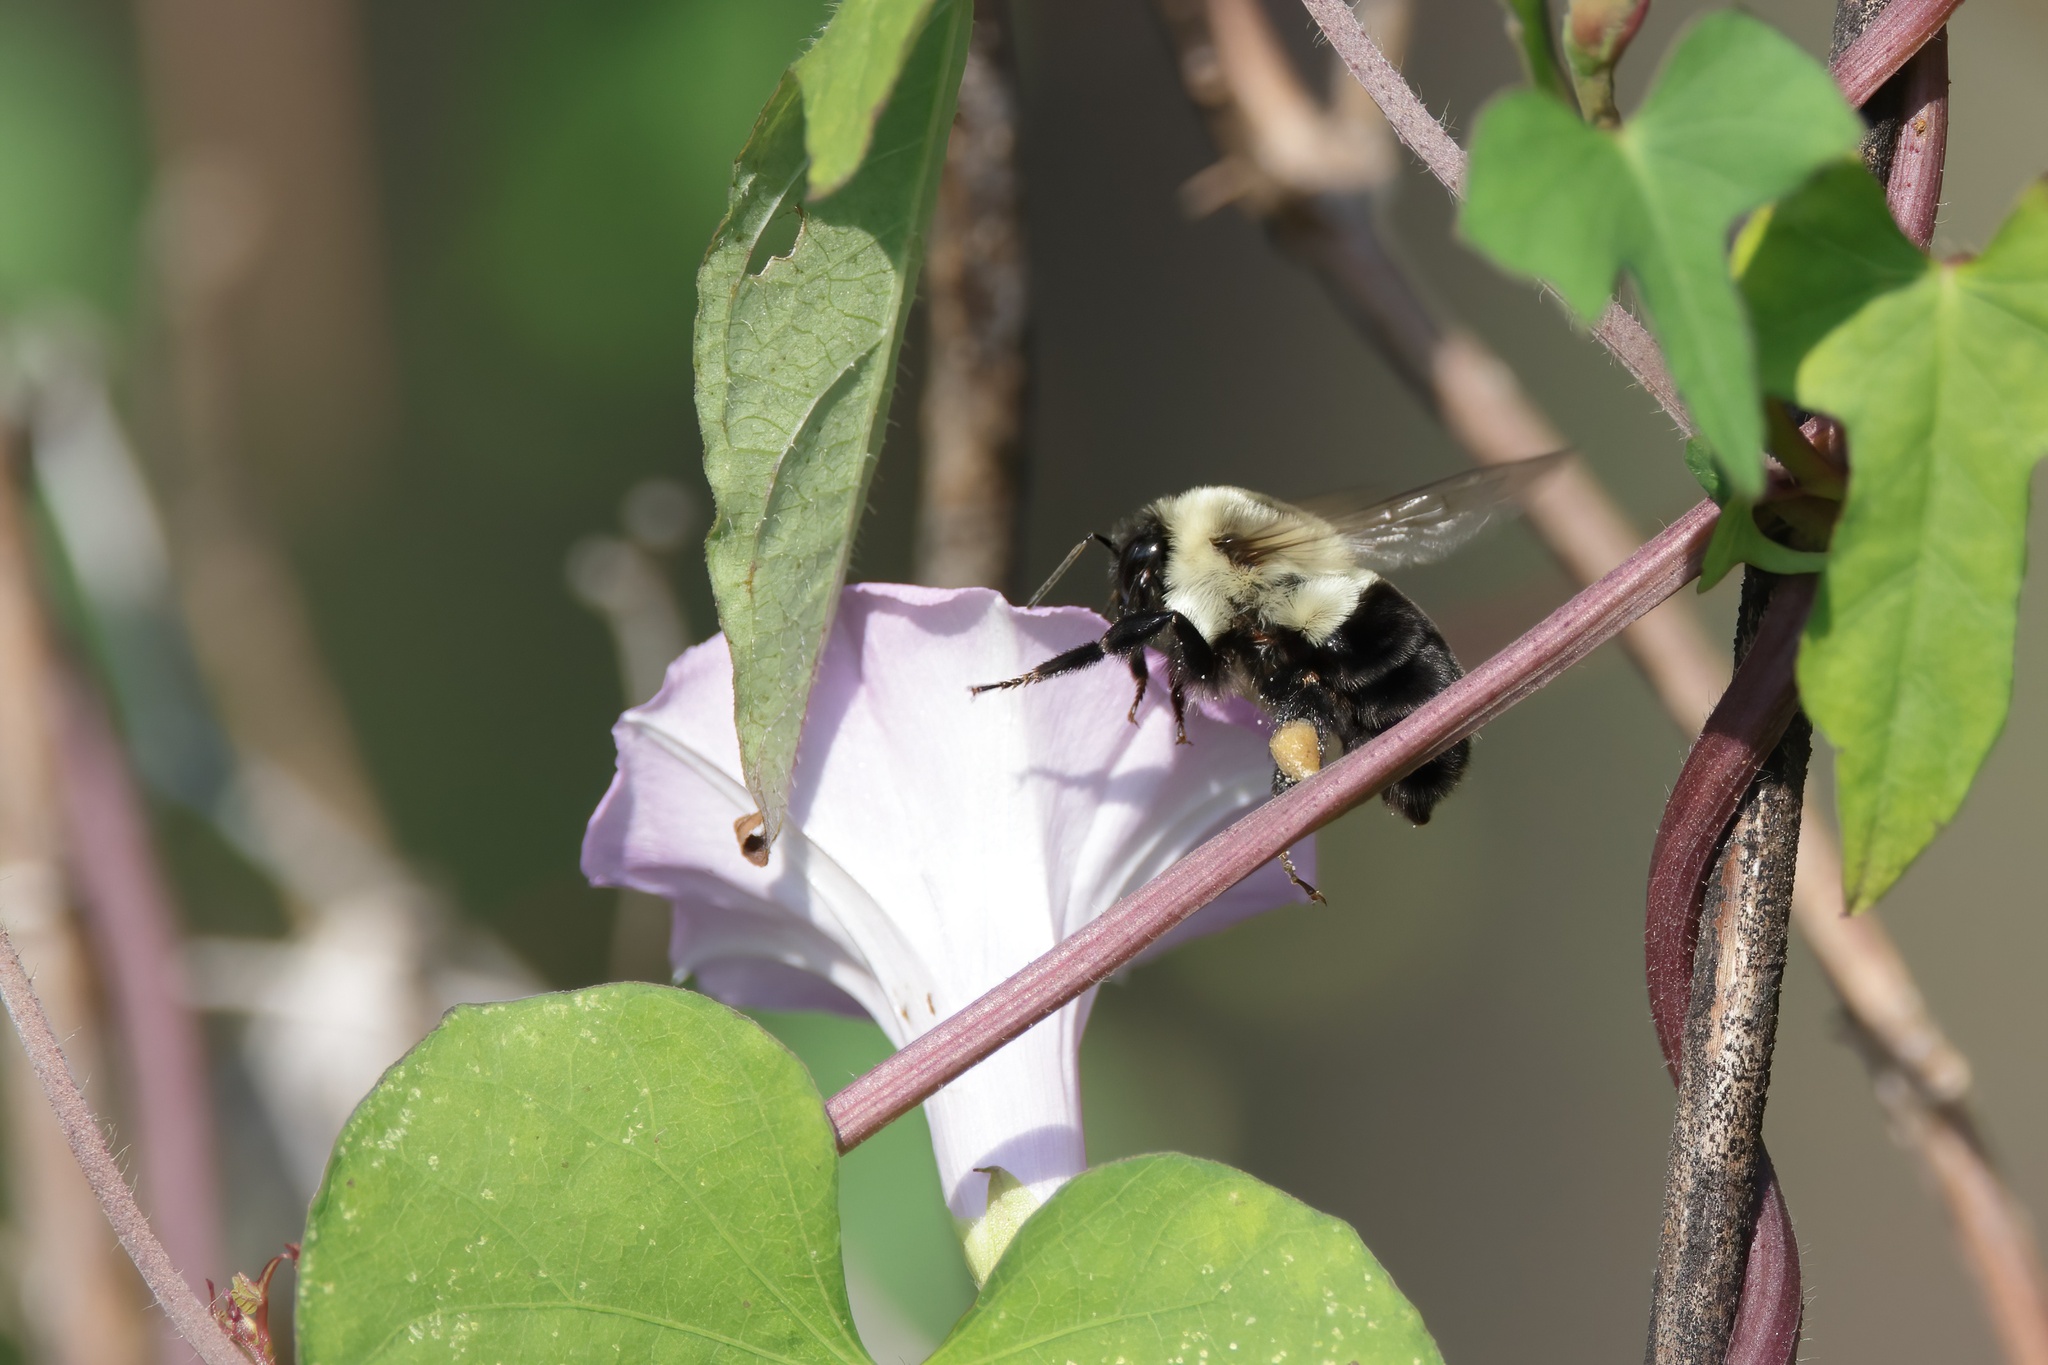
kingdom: Animalia
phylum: Arthropoda
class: Insecta
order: Hymenoptera
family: Apidae
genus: Bombus
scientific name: Bombus impatiens
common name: Common eastern bumble bee
